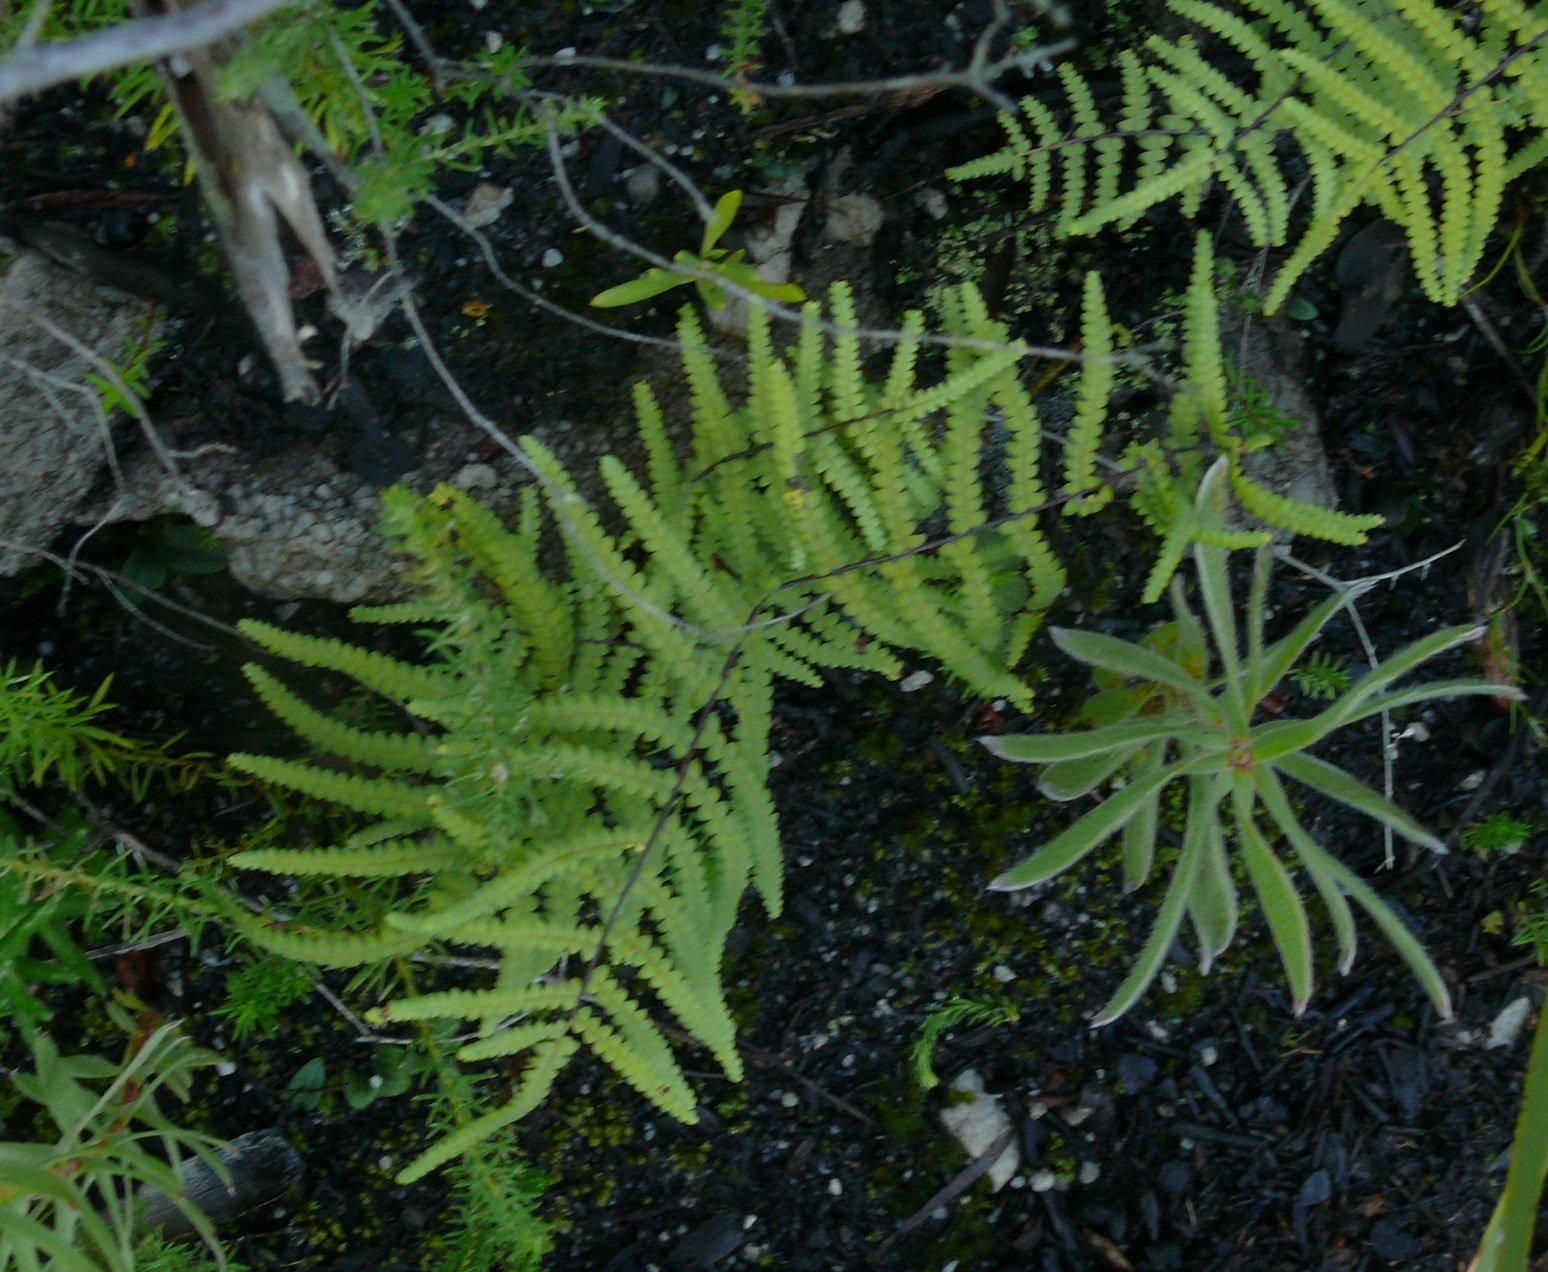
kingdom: Plantae
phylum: Tracheophyta
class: Polypodiopsida
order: Gleicheniales
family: Gleicheniaceae
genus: Gleichenia
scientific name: Gleichenia polypodioides
